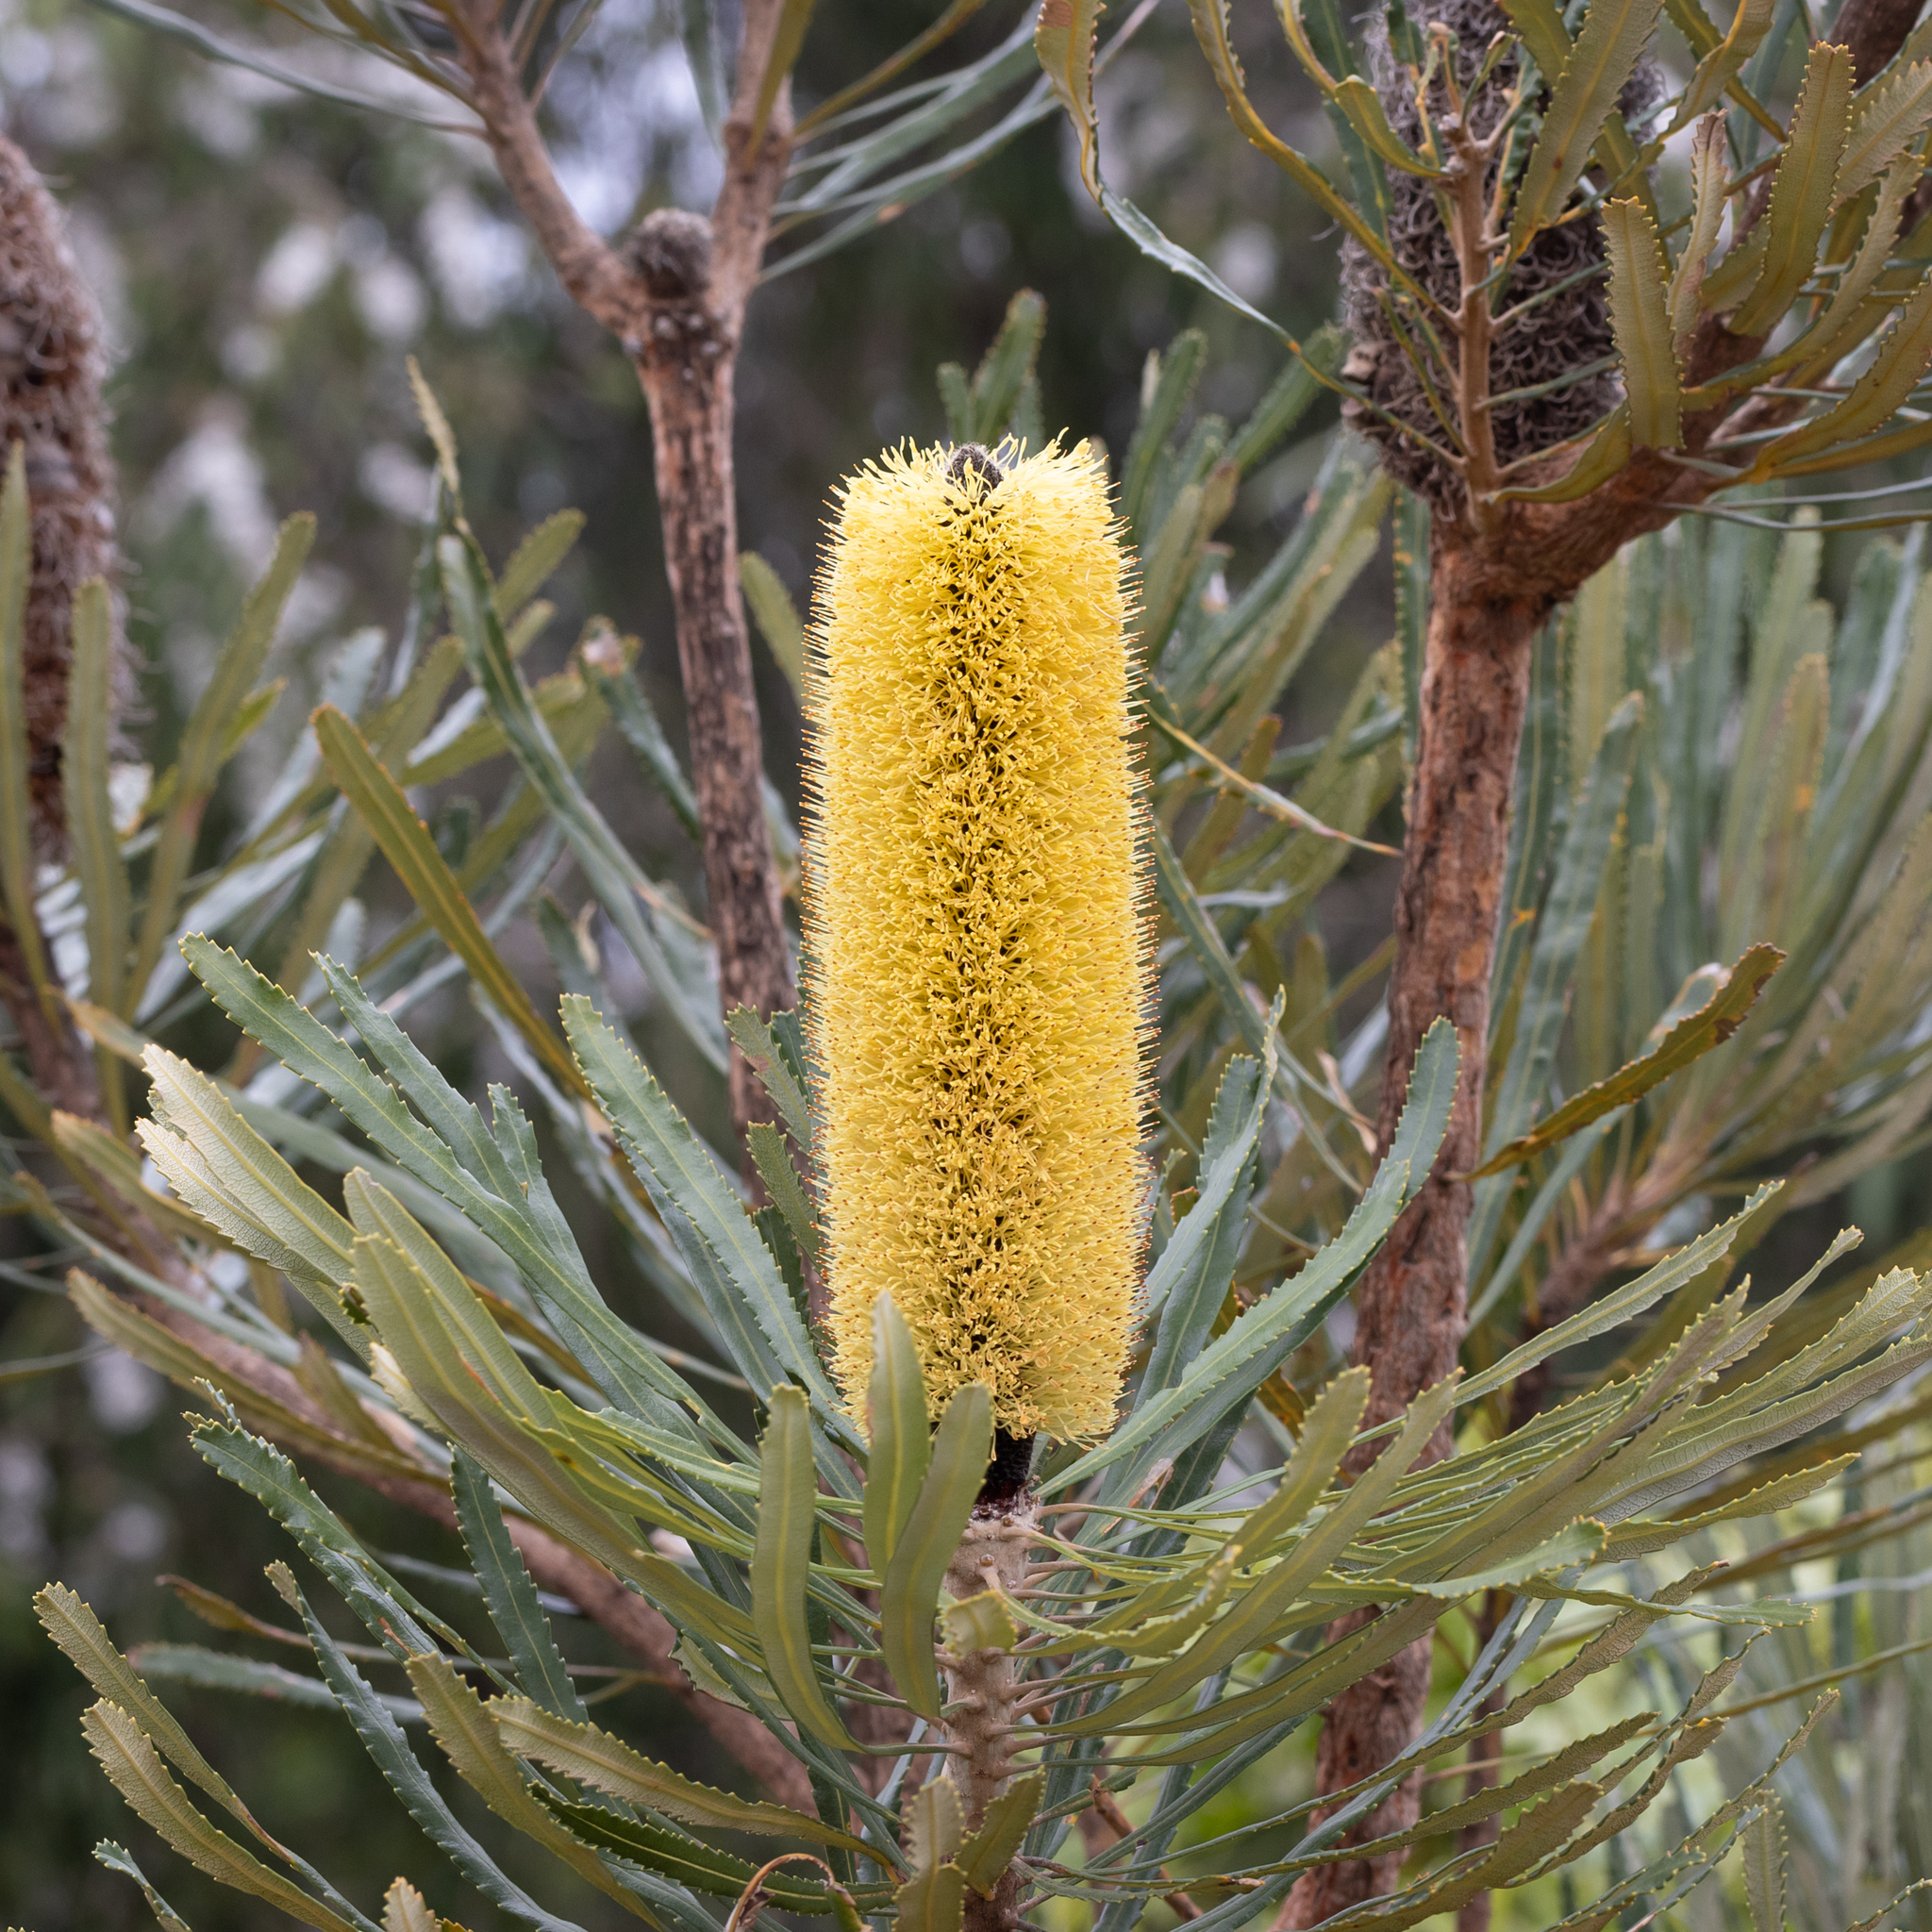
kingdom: Plantae
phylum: Tracheophyta
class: Magnoliopsida
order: Proteales
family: Proteaceae
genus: Banksia
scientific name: Banksia attenuata
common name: Coast banksia
